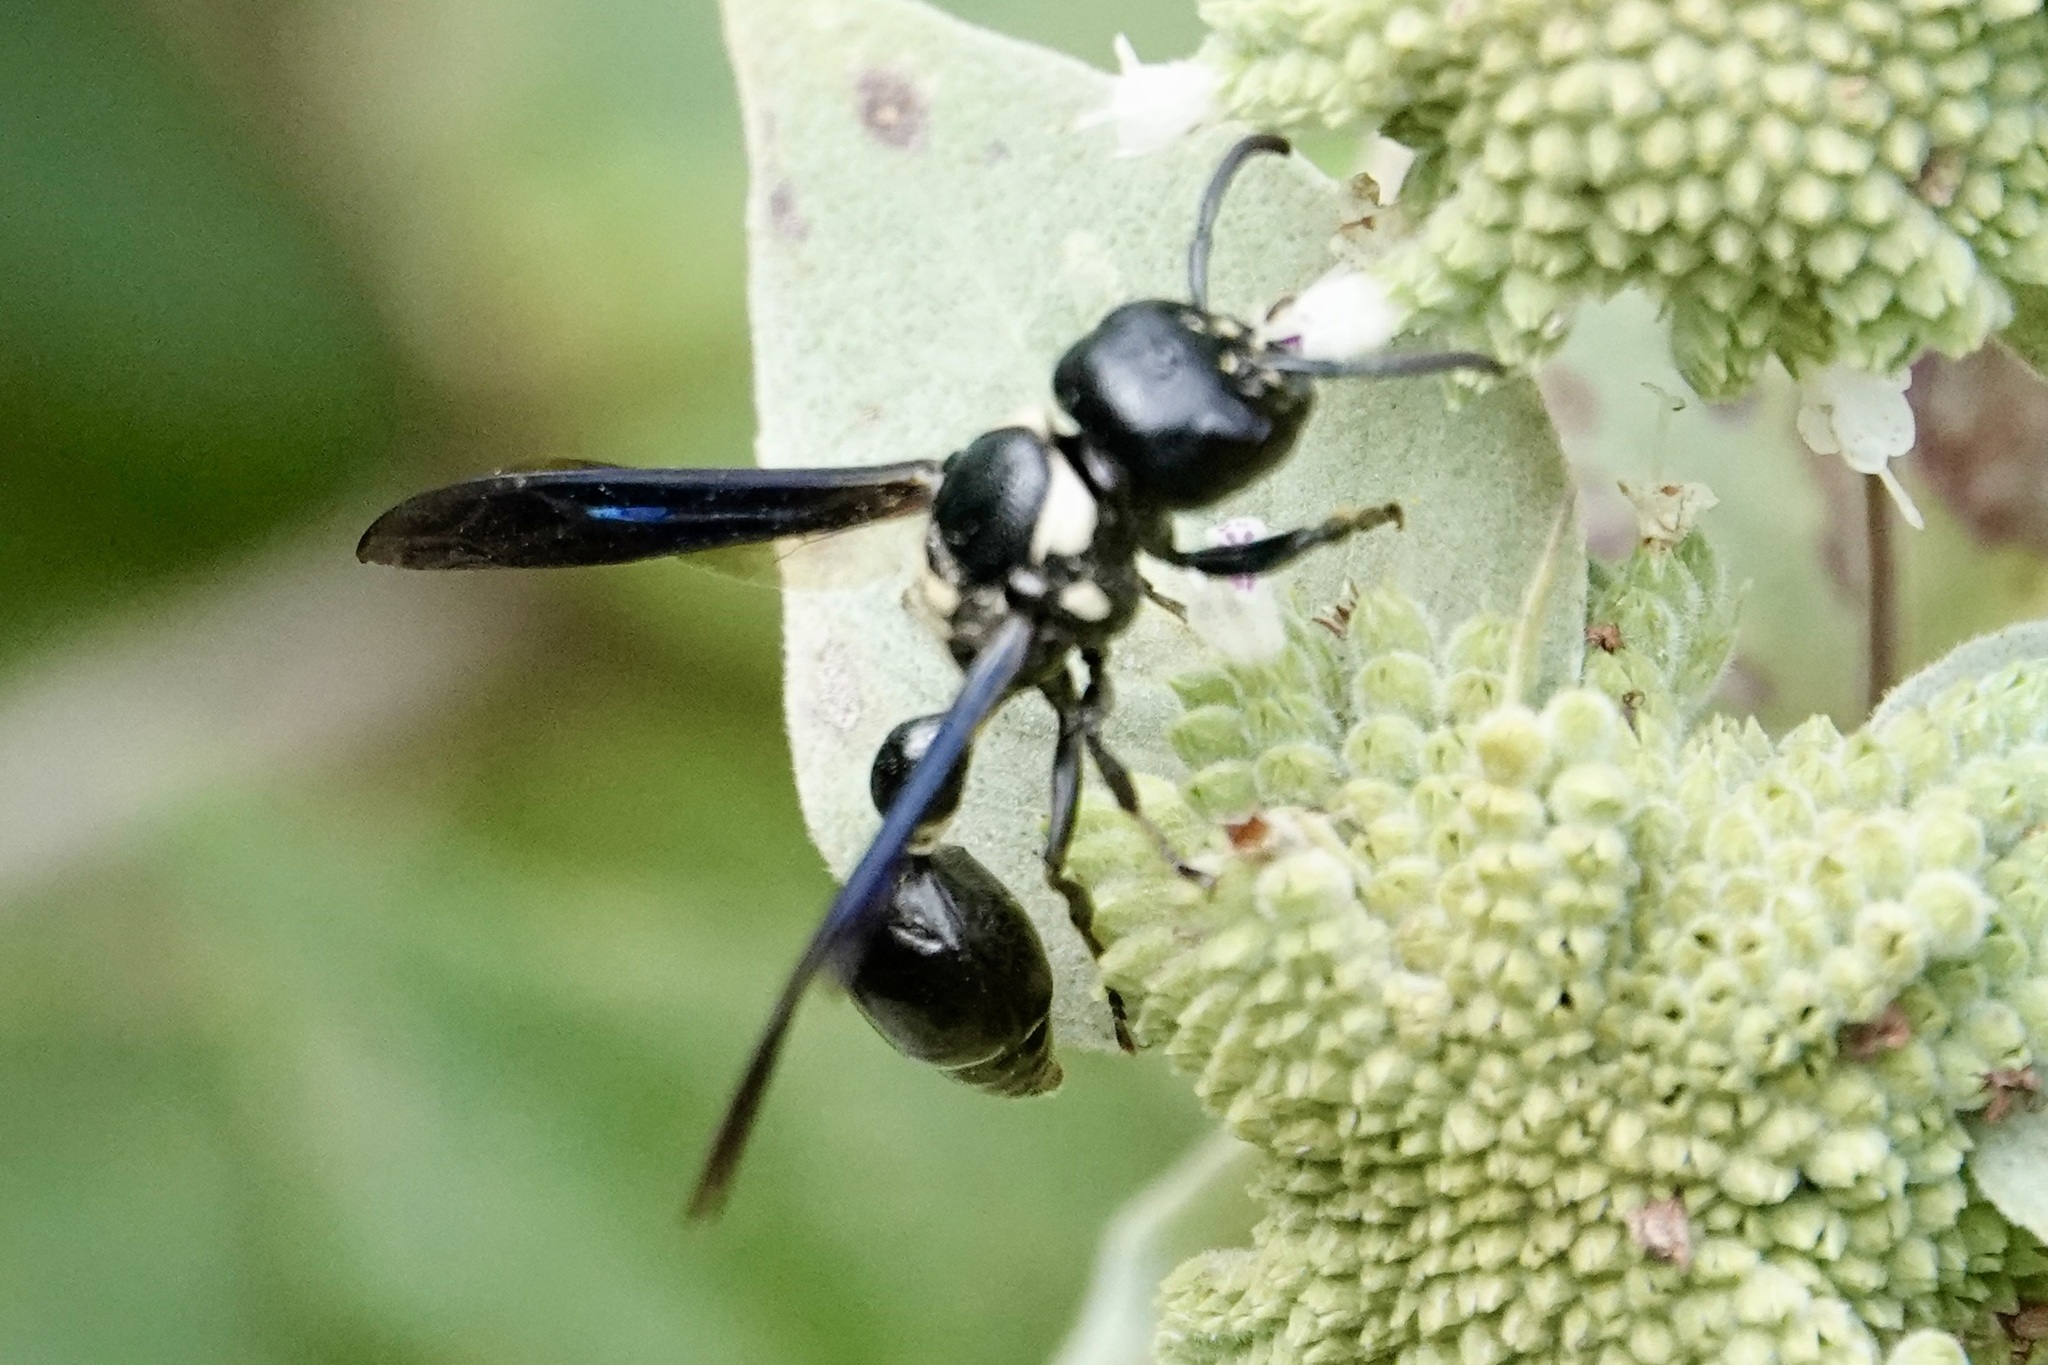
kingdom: Animalia
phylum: Arthropoda
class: Insecta
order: Hymenoptera
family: Eumenidae
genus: Zethus
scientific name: Zethus spinipes
